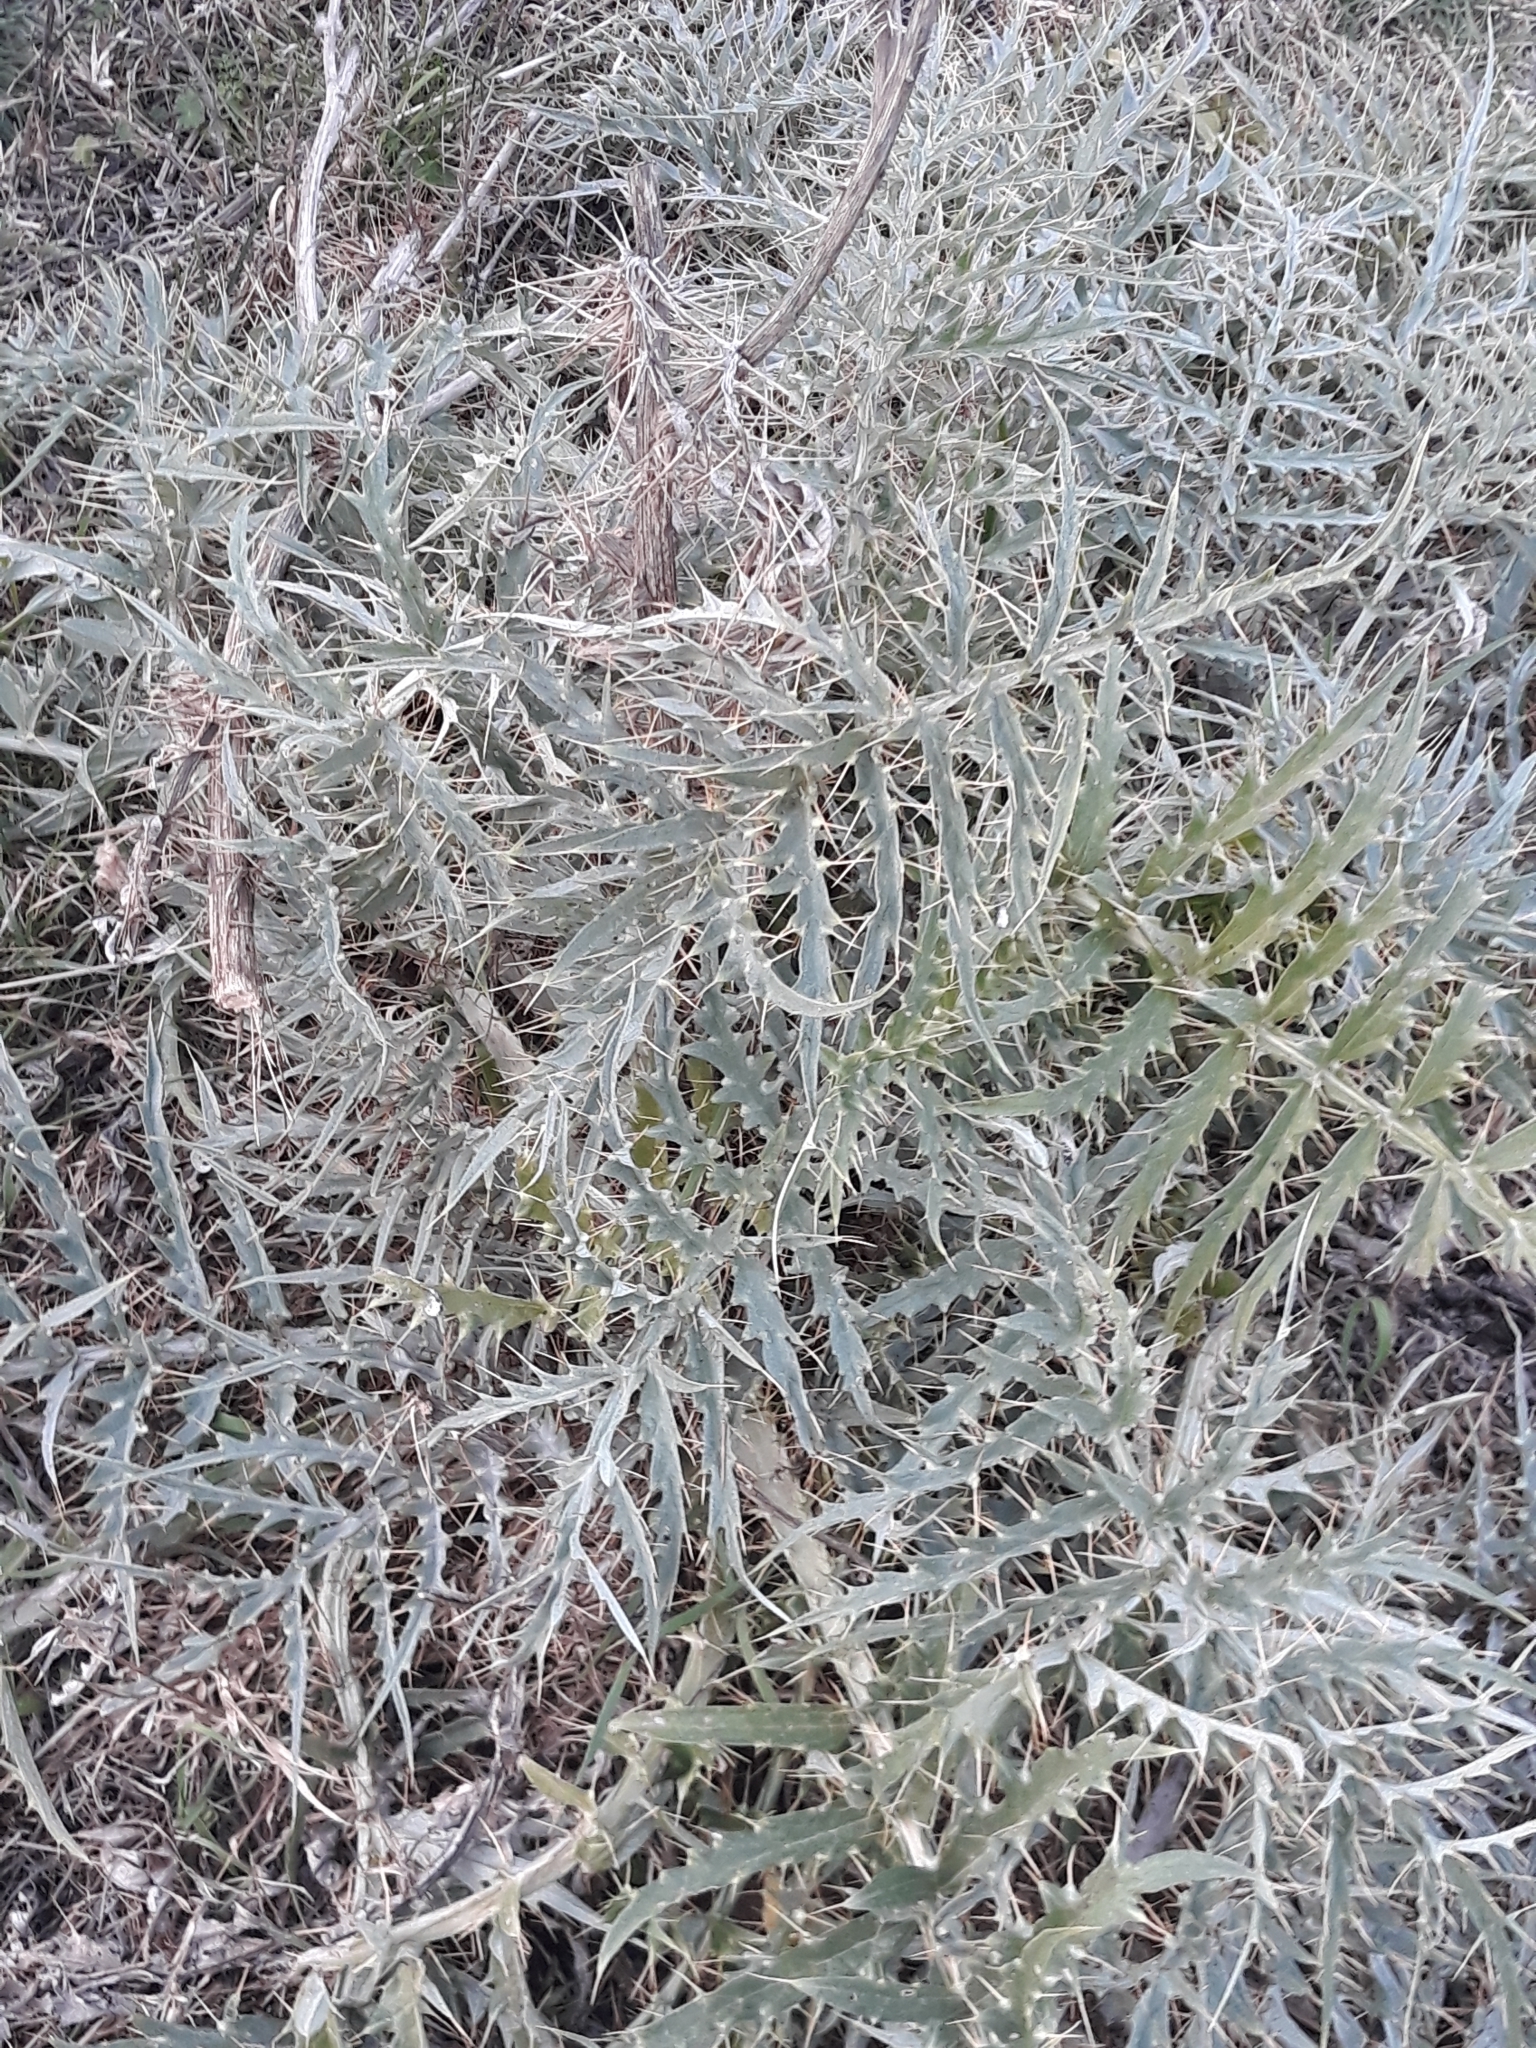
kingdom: Plantae
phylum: Tracheophyta
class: Magnoliopsida
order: Asterales
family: Asteraceae
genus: Cynara
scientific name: Cynara cardunculus
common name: Globe artichoke
